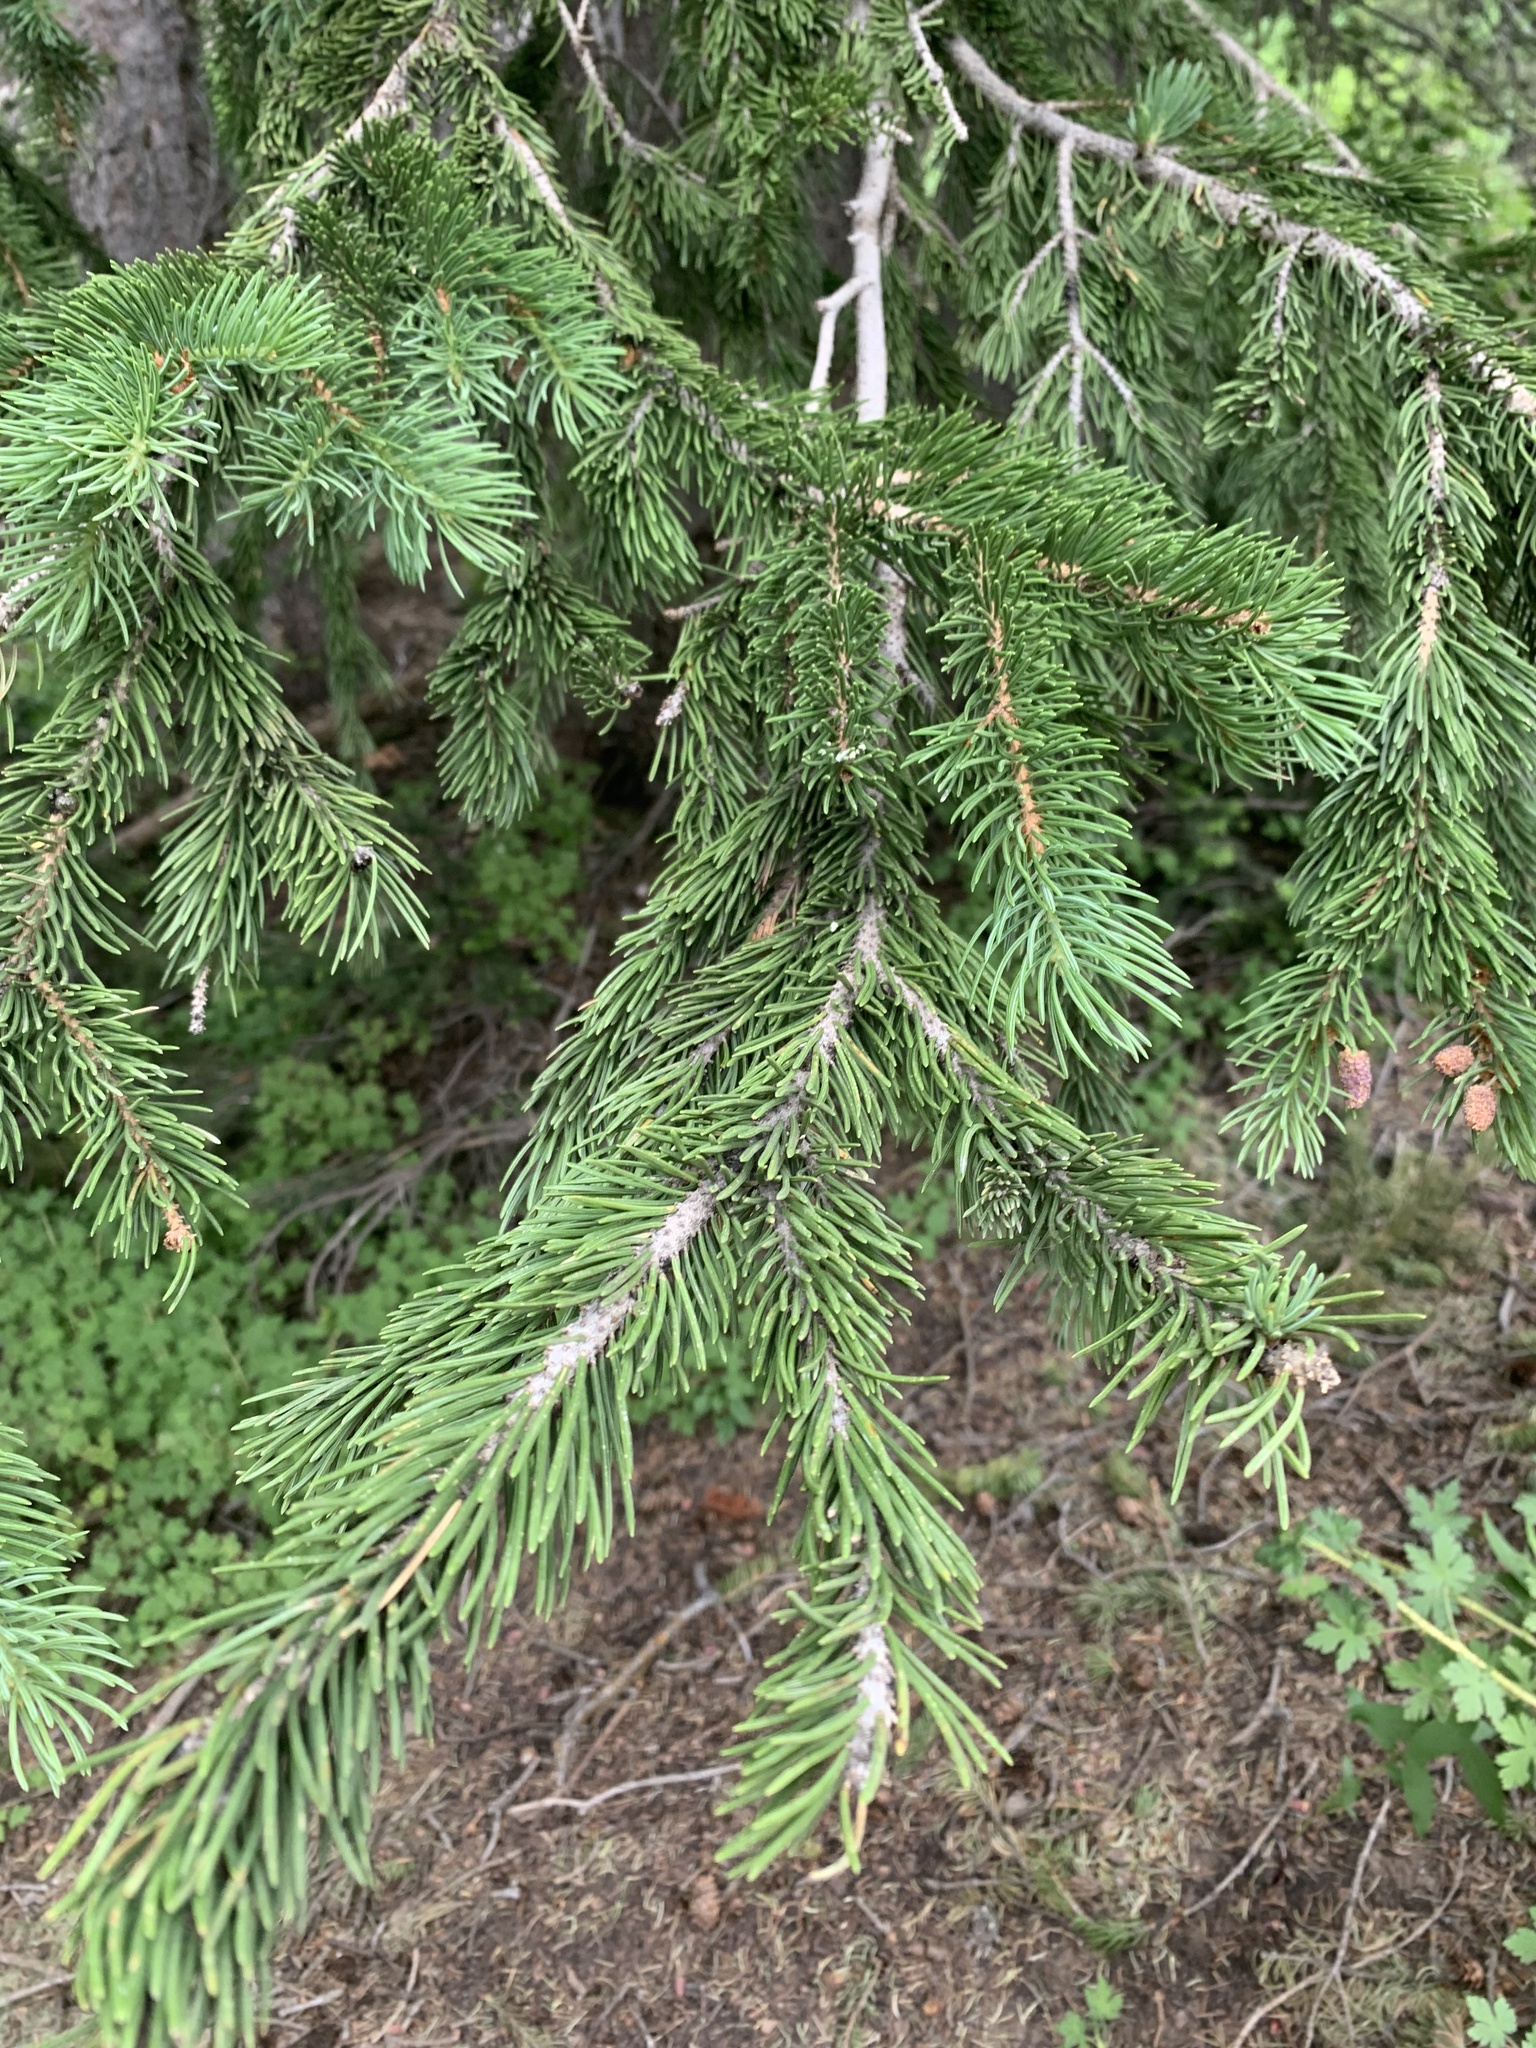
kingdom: Plantae
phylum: Tracheophyta
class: Pinopsida
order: Pinales
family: Pinaceae
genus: Picea
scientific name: Picea engelmannii
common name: Engelmann spruce
